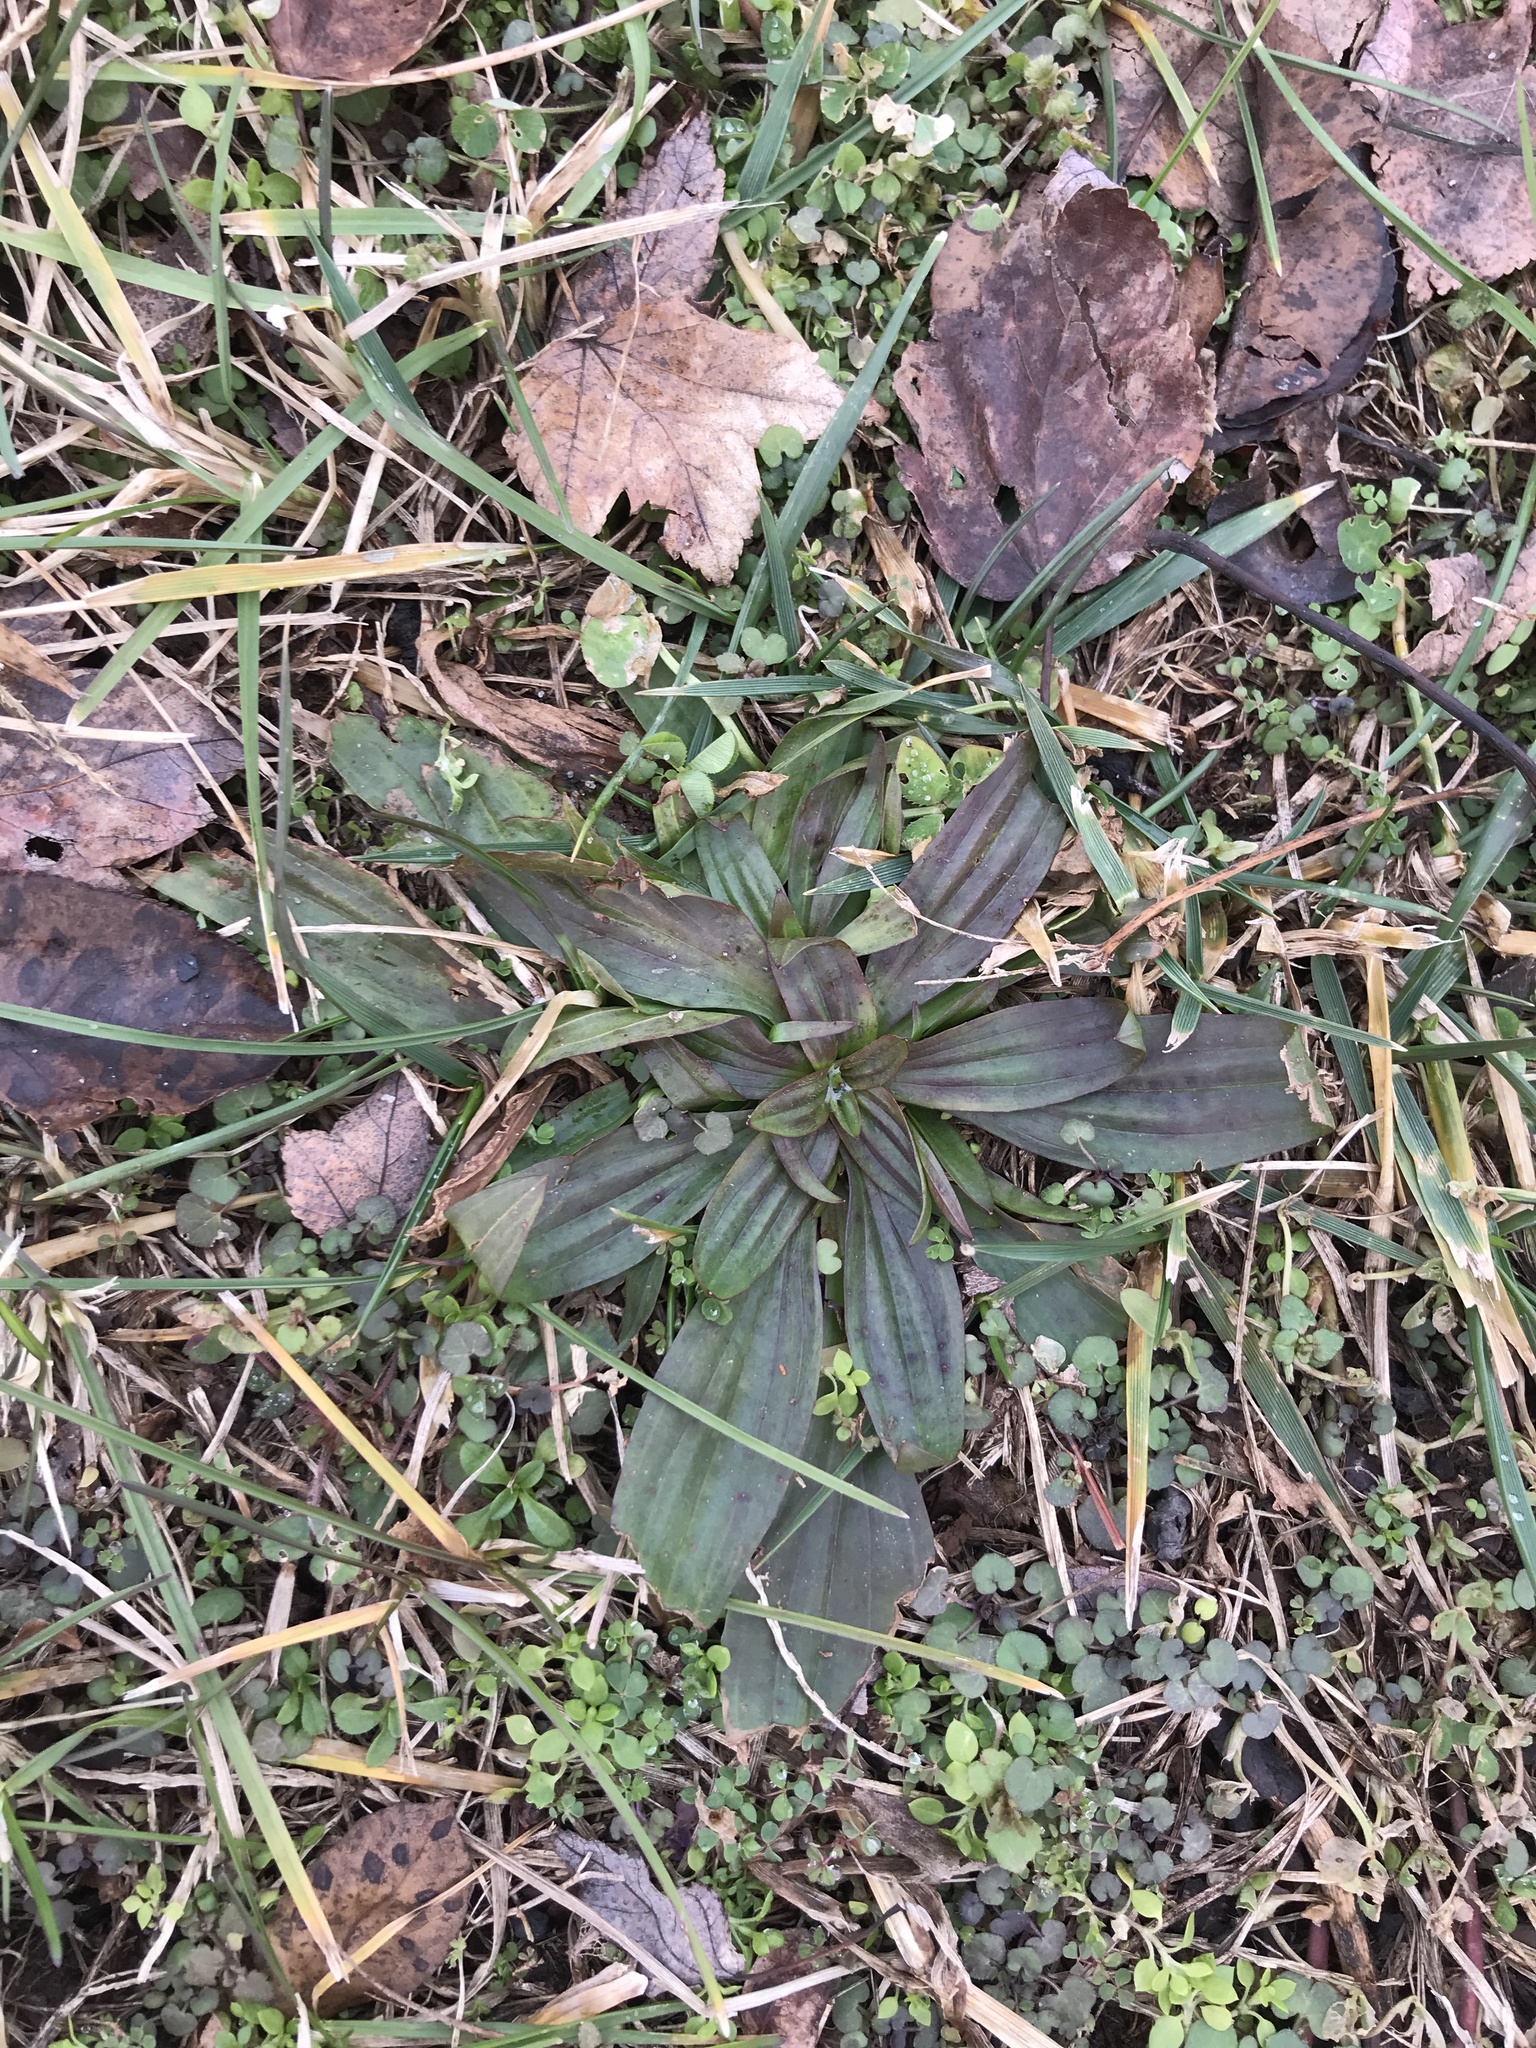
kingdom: Plantae
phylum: Tracheophyta
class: Magnoliopsida
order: Lamiales
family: Plantaginaceae
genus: Plantago
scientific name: Plantago lanceolata
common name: Ribwort plantain
